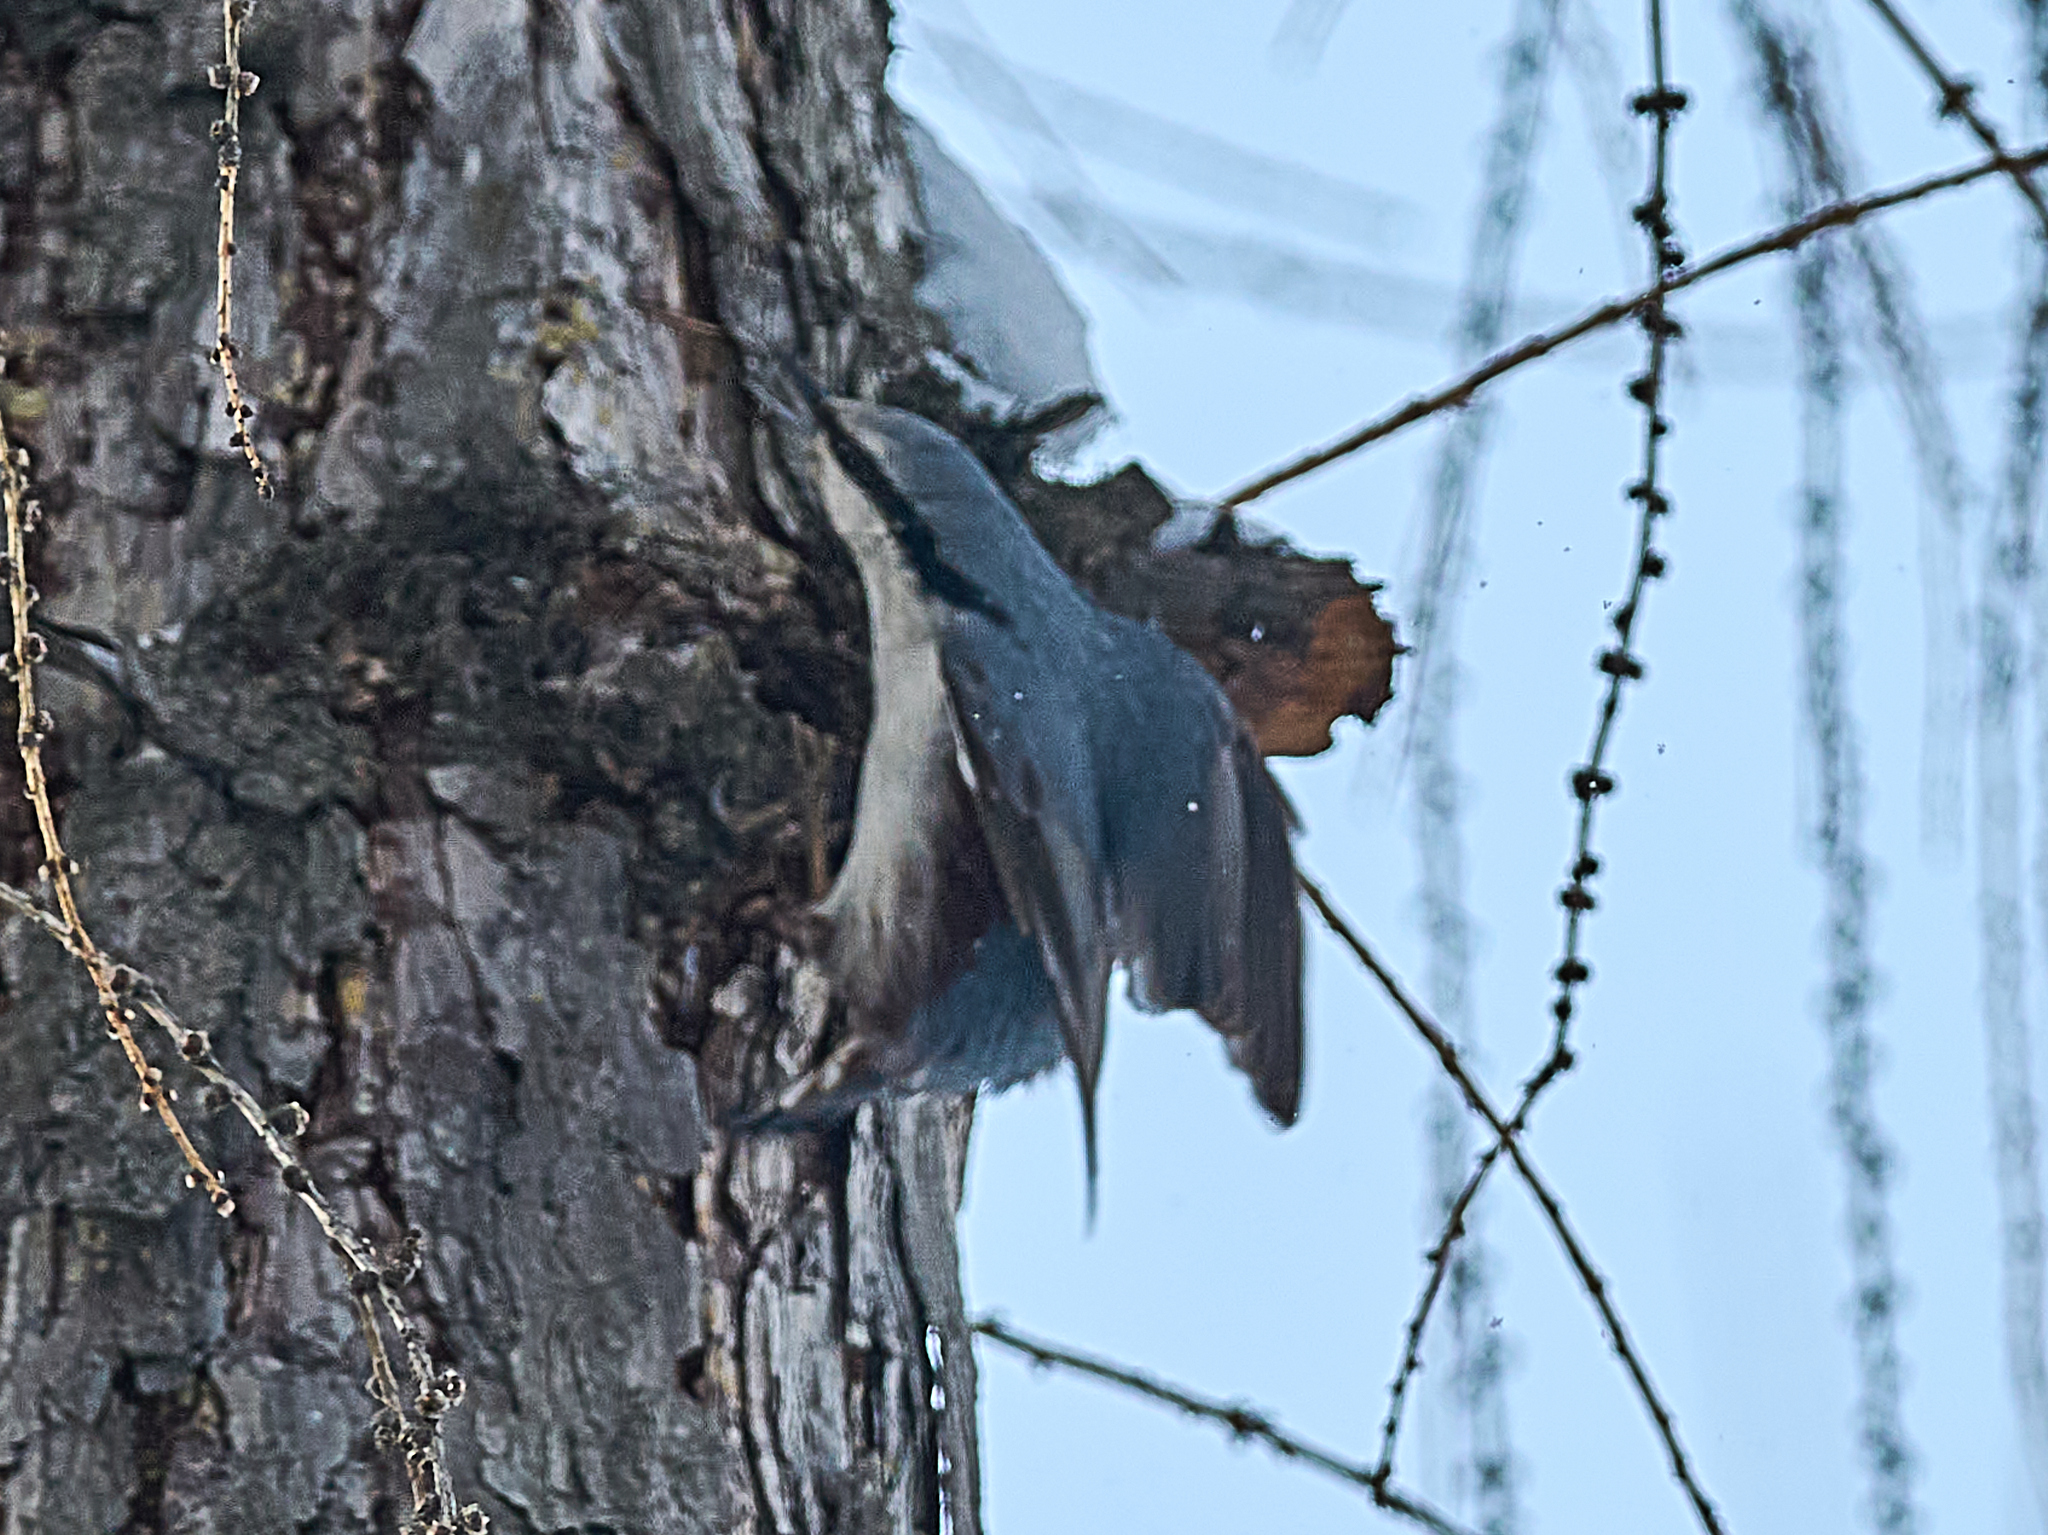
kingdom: Animalia
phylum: Chordata
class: Aves
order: Passeriformes
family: Sittidae
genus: Sitta
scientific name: Sitta europaea
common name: Eurasian nuthatch
